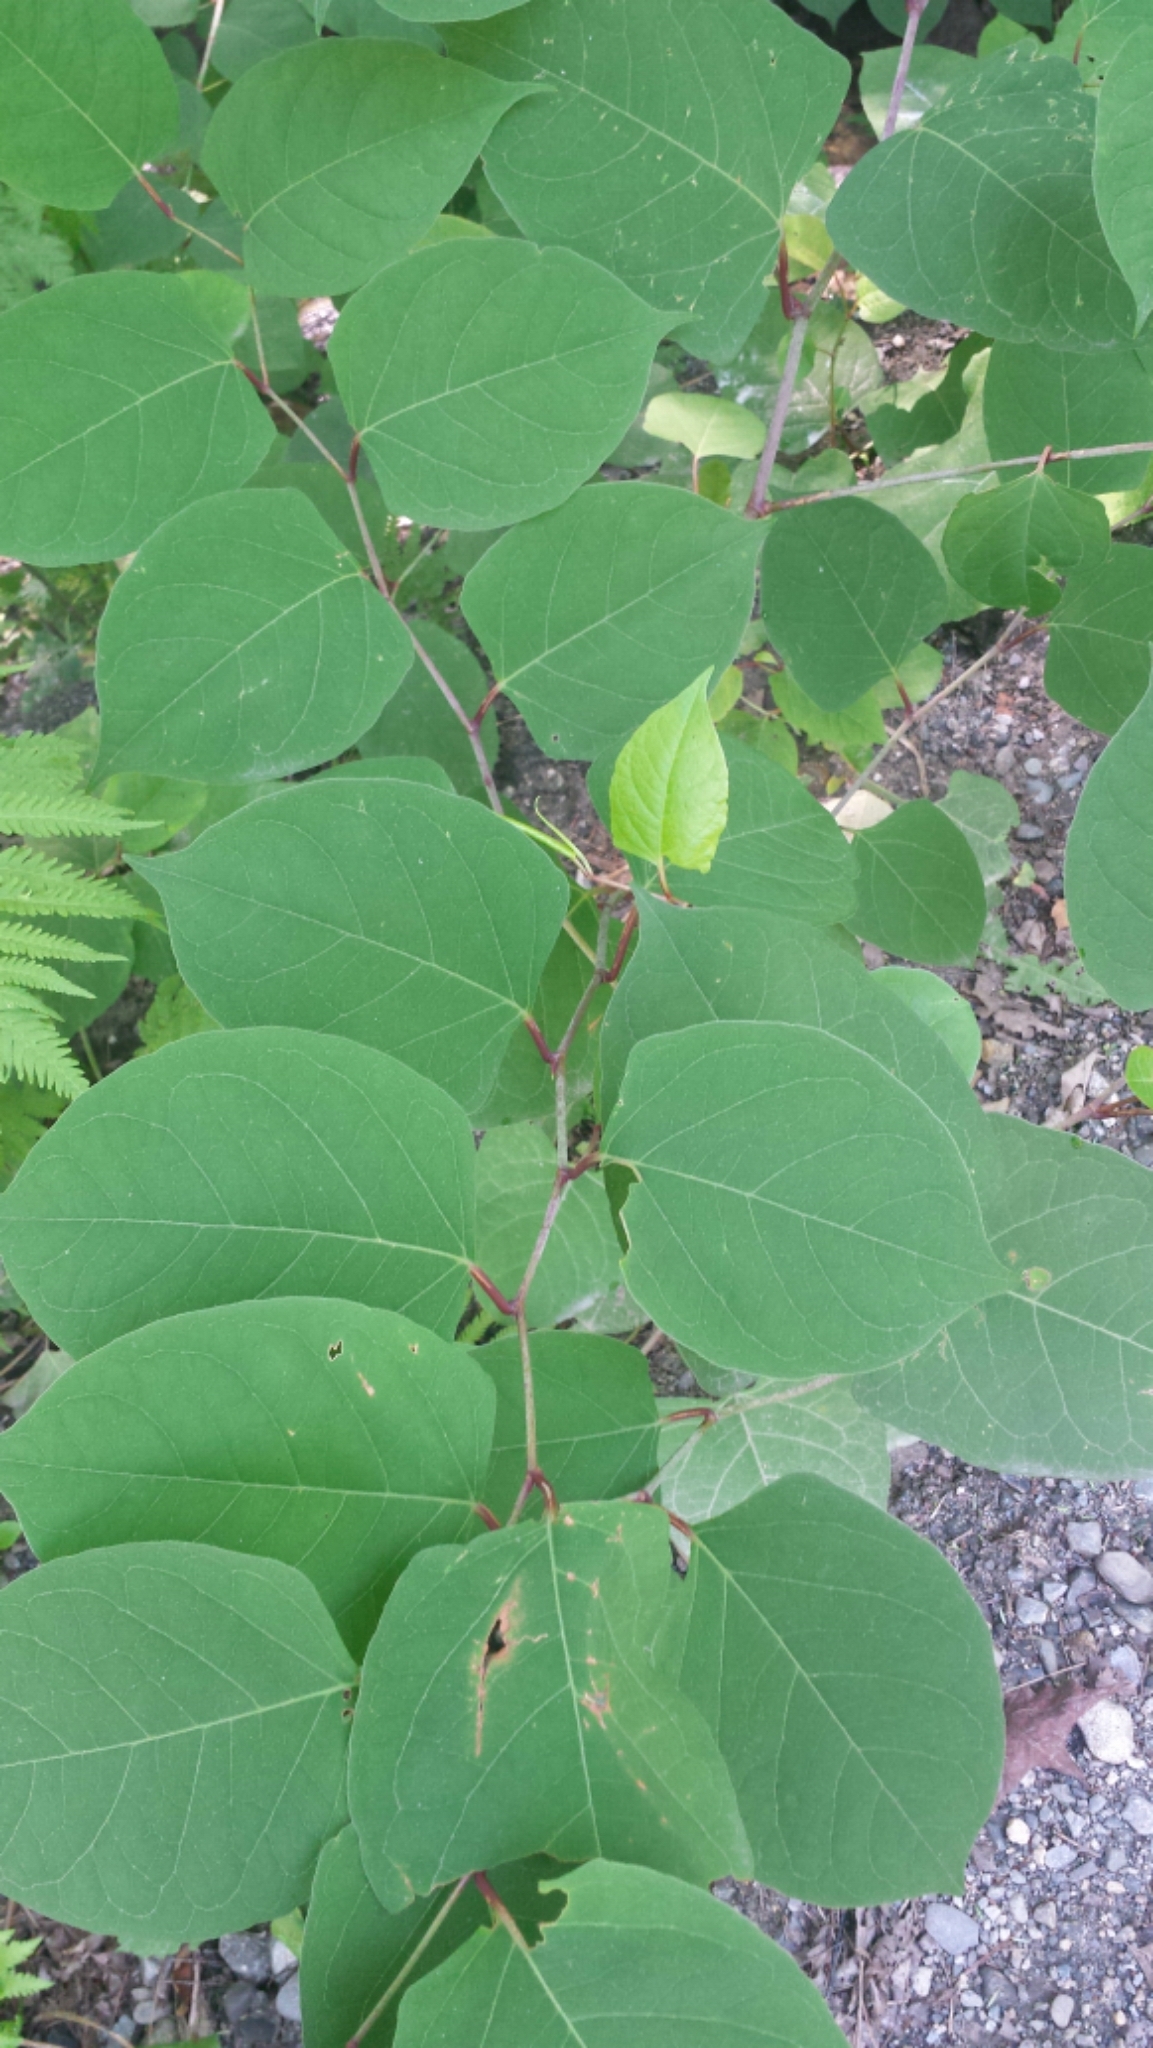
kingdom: Plantae
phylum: Tracheophyta
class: Magnoliopsida
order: Caryophyllales
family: Polygonaceae
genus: Reynoutria
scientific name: Reynoutria japonica
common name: Japanese knotweed
